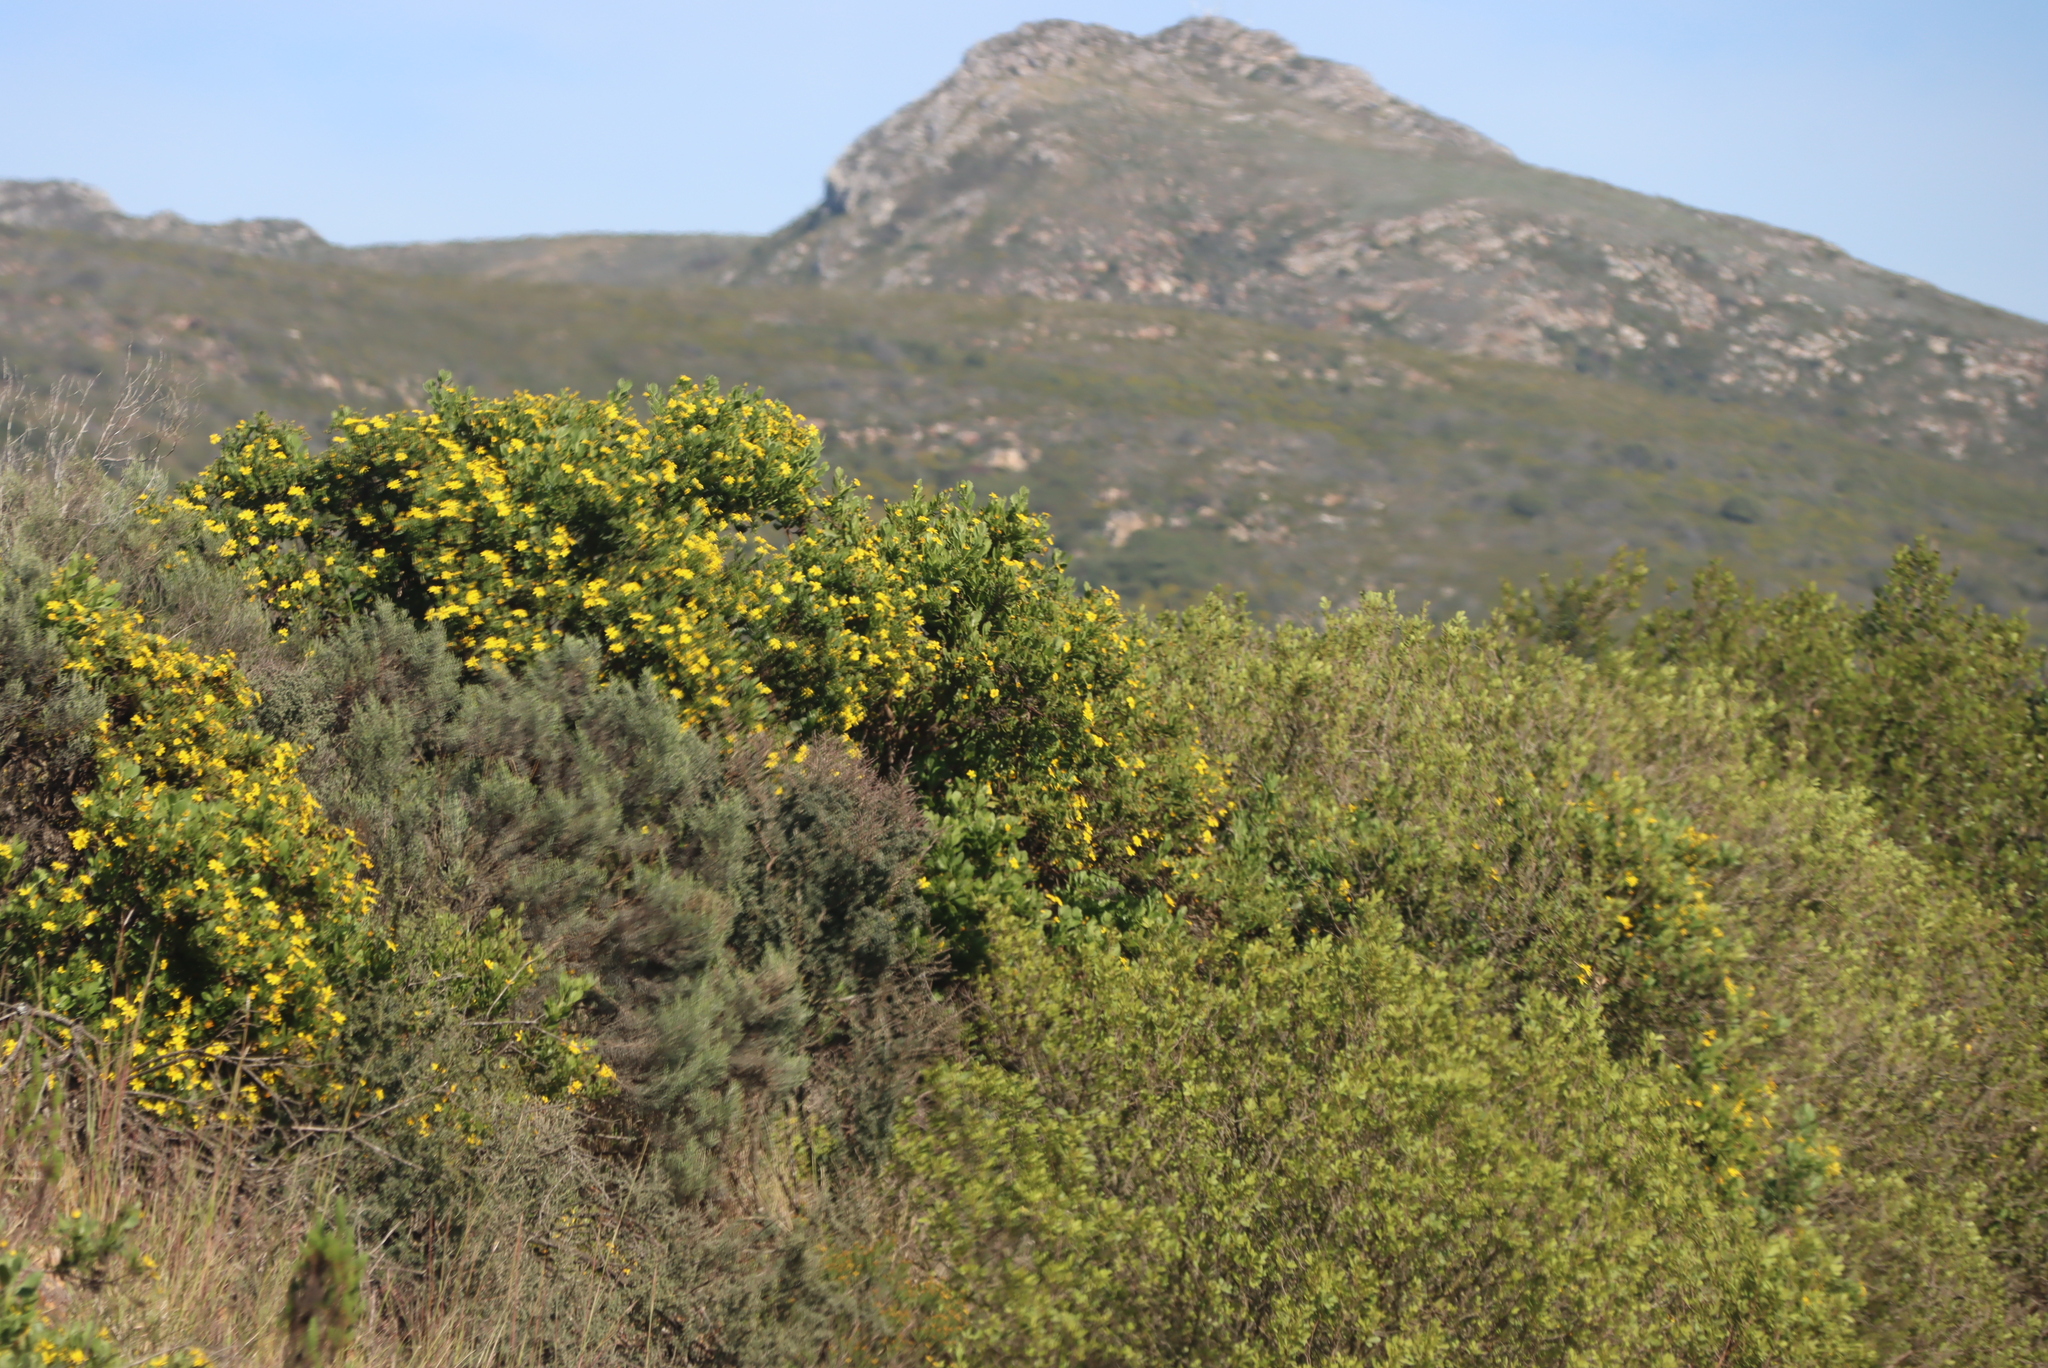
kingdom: Plantae
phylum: Tracheophyta
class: Magnoliopsida
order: Asterales
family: Asteraceae
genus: Dicerothamnus
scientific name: Dicerothamnus rhinocerotis
